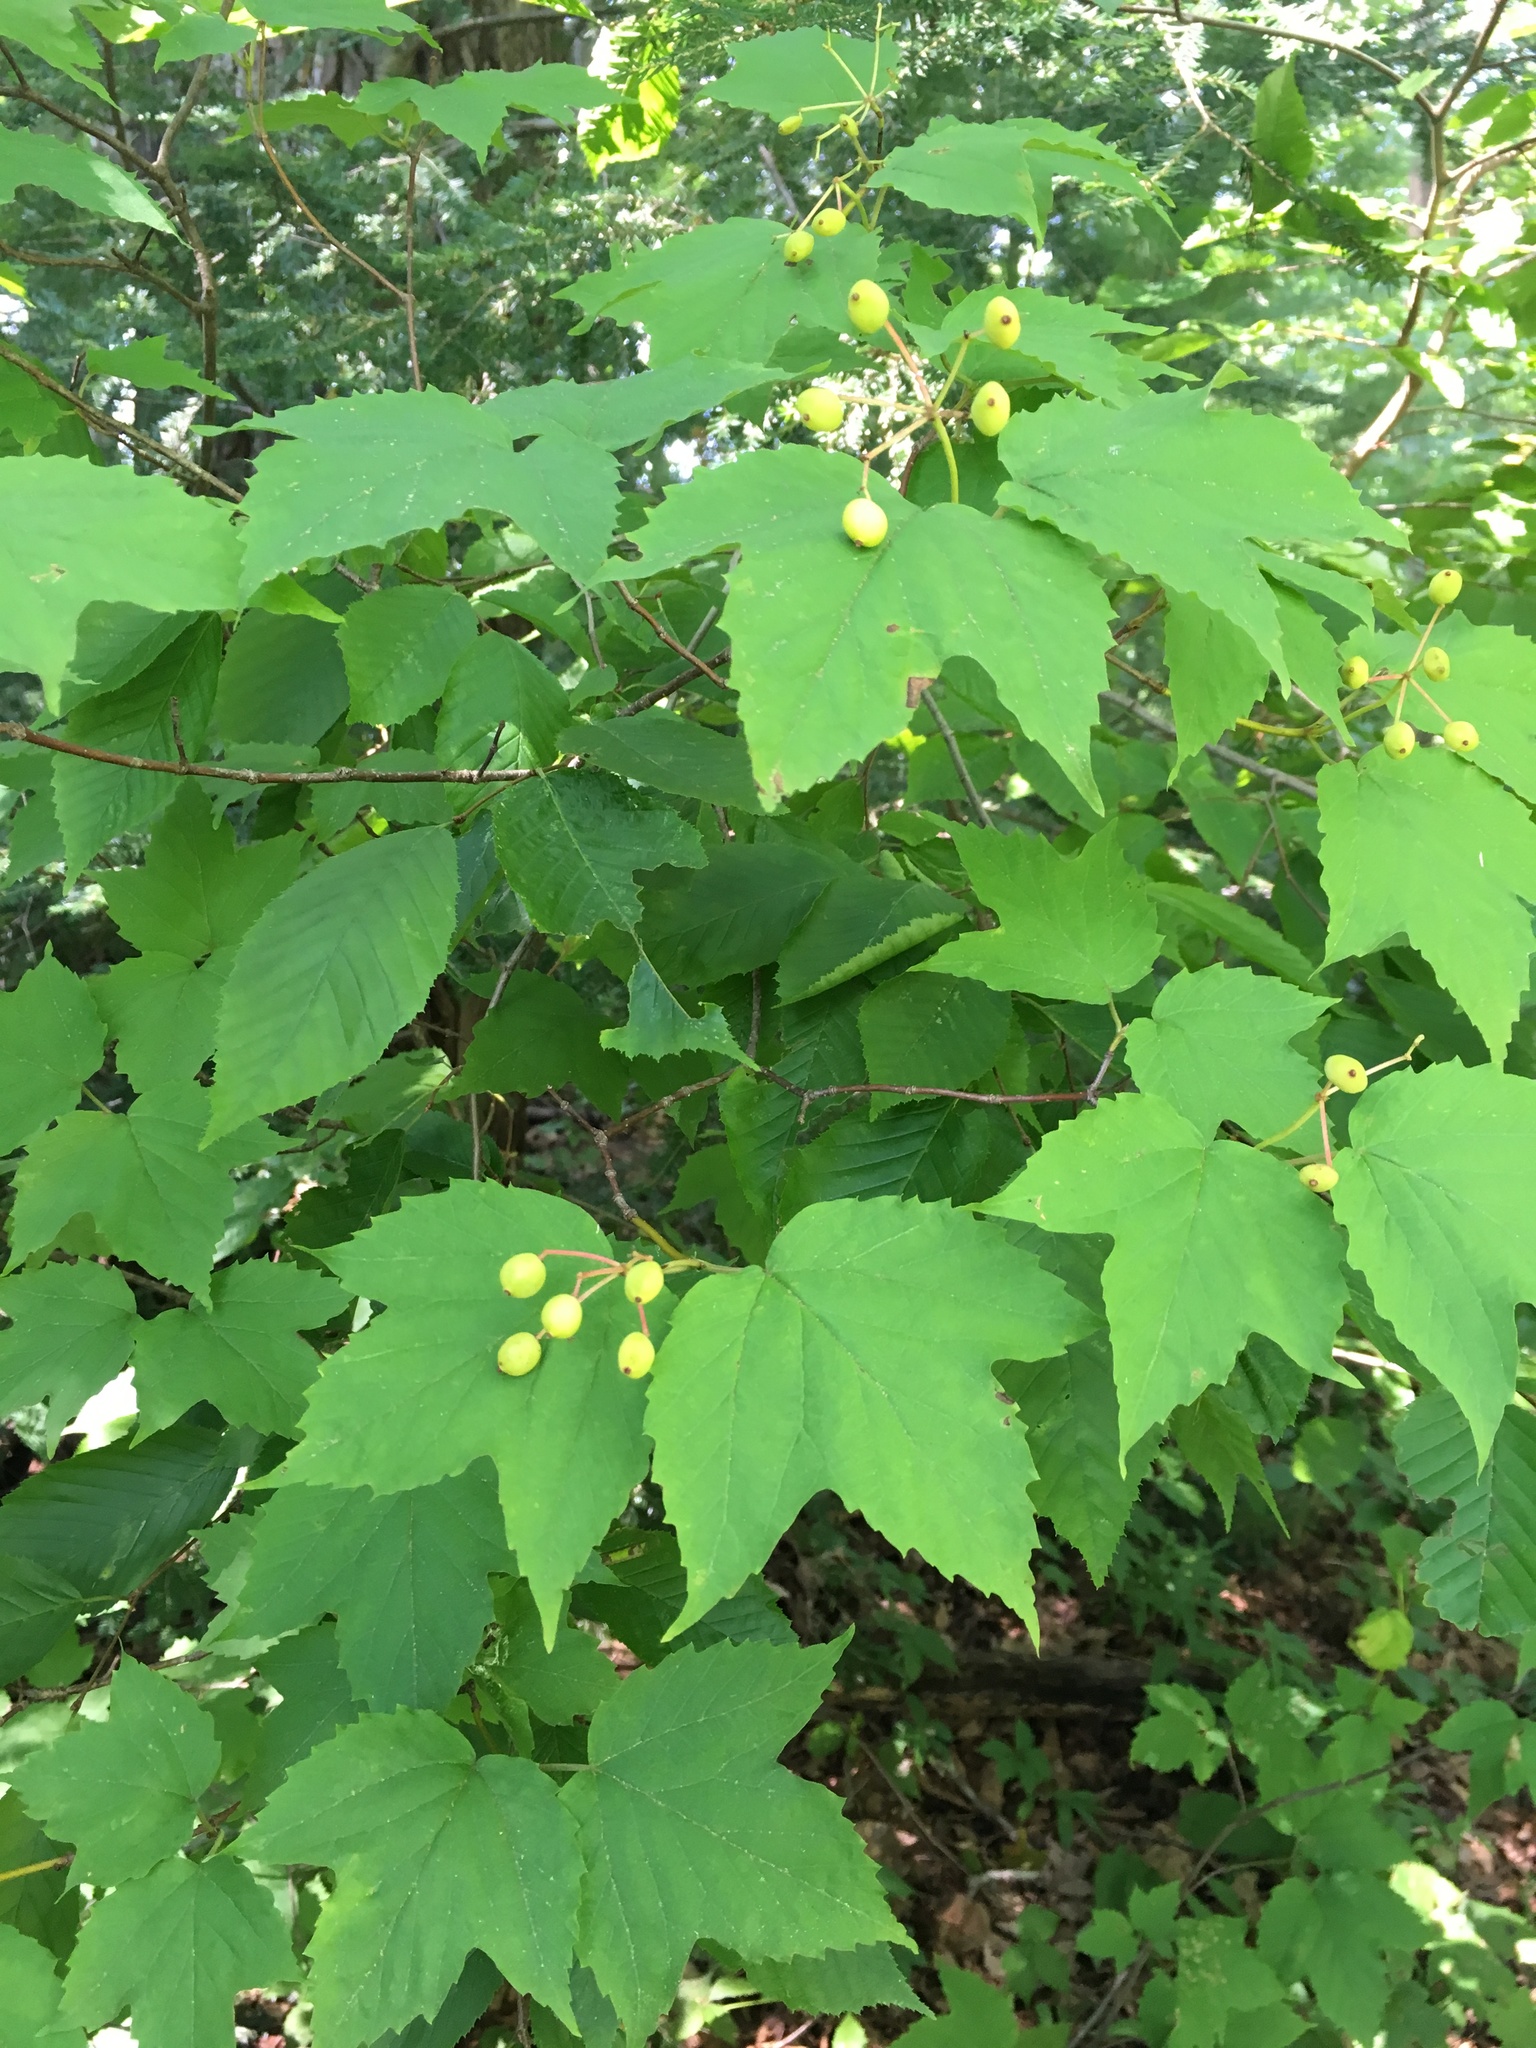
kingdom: Plantae
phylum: Tracheophyta
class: Magnoliopsida
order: Dipsacales
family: Viburnaceae
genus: Viburnum
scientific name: Viburnum acerifolium
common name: Dockmackie
